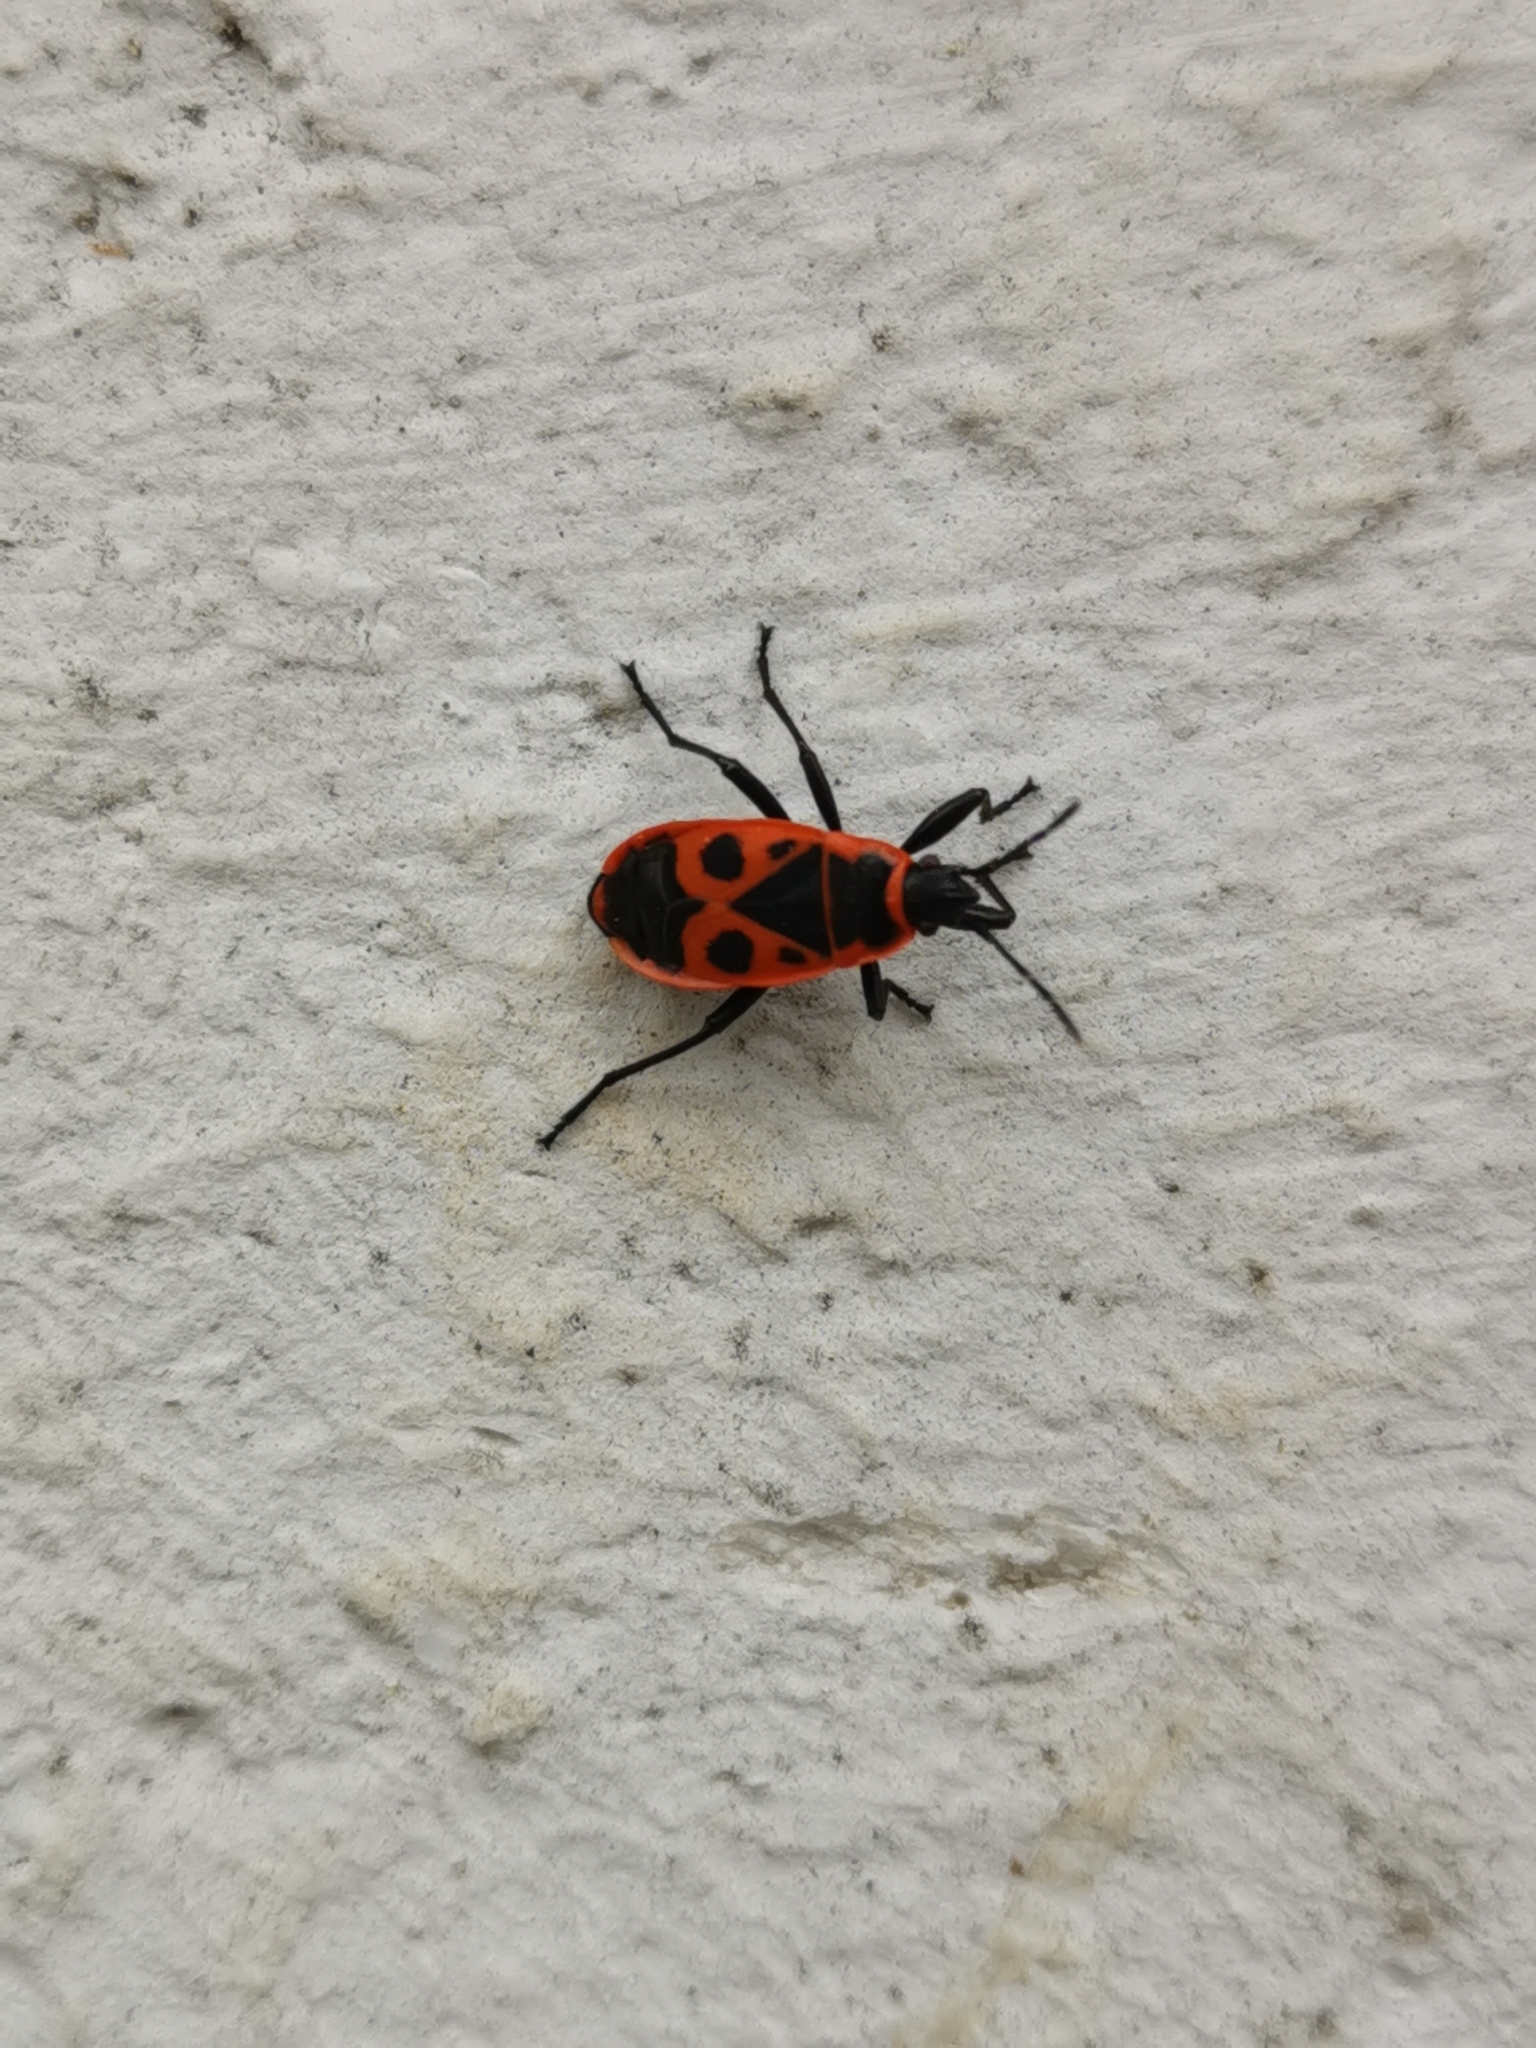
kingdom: Animalia
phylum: Arthropoda
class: Insecta
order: Hemiptera
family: Pyrrhocoridae
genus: Pyrrhocoris
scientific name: Pyrrhocoris apterus
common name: Firebug
